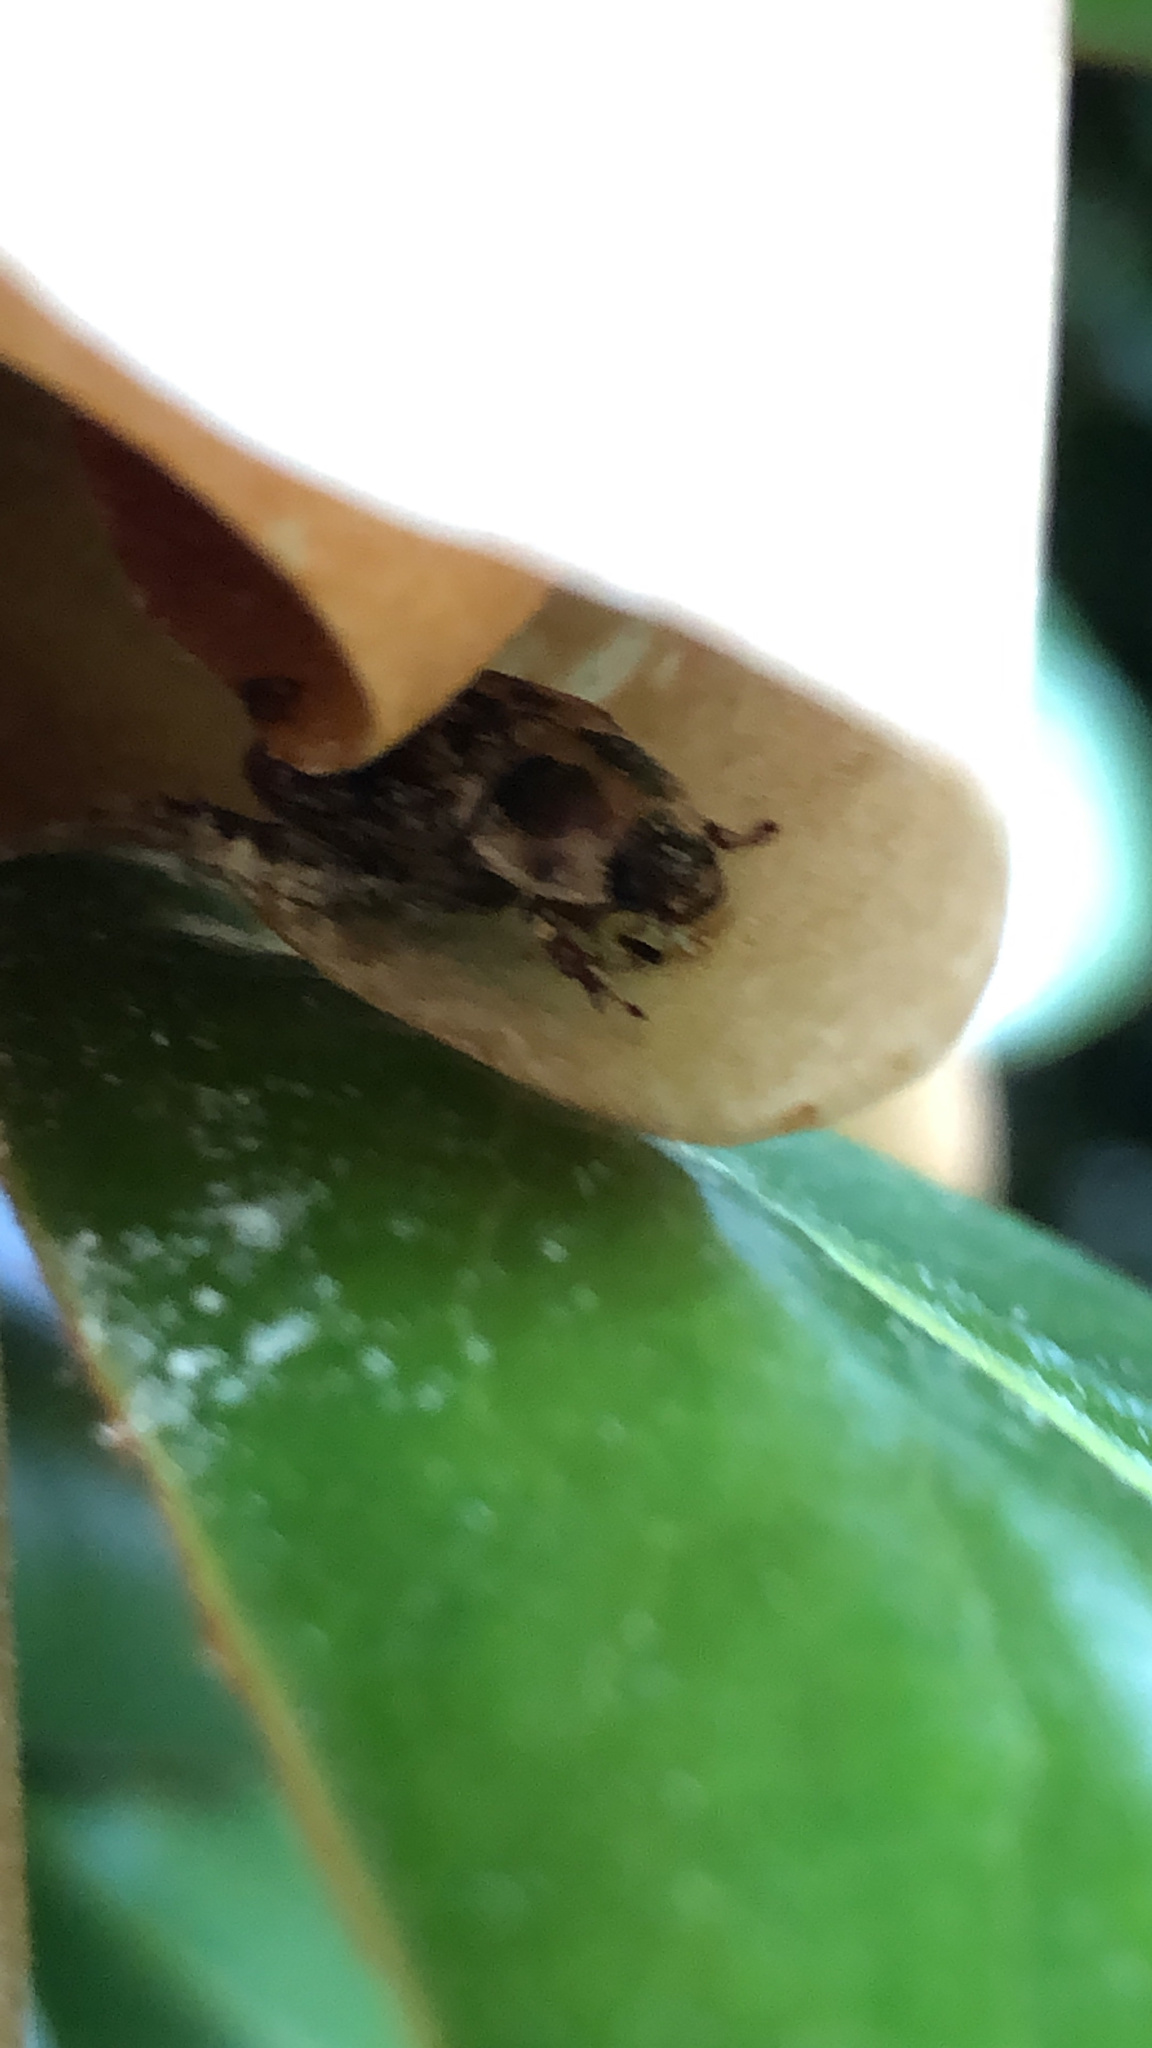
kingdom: Animalia
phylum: Arthropoda
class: Insecta
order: Coleoptera
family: Scarabaeidae
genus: Exomala
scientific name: Exomala orientalis
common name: Oriental beetle
